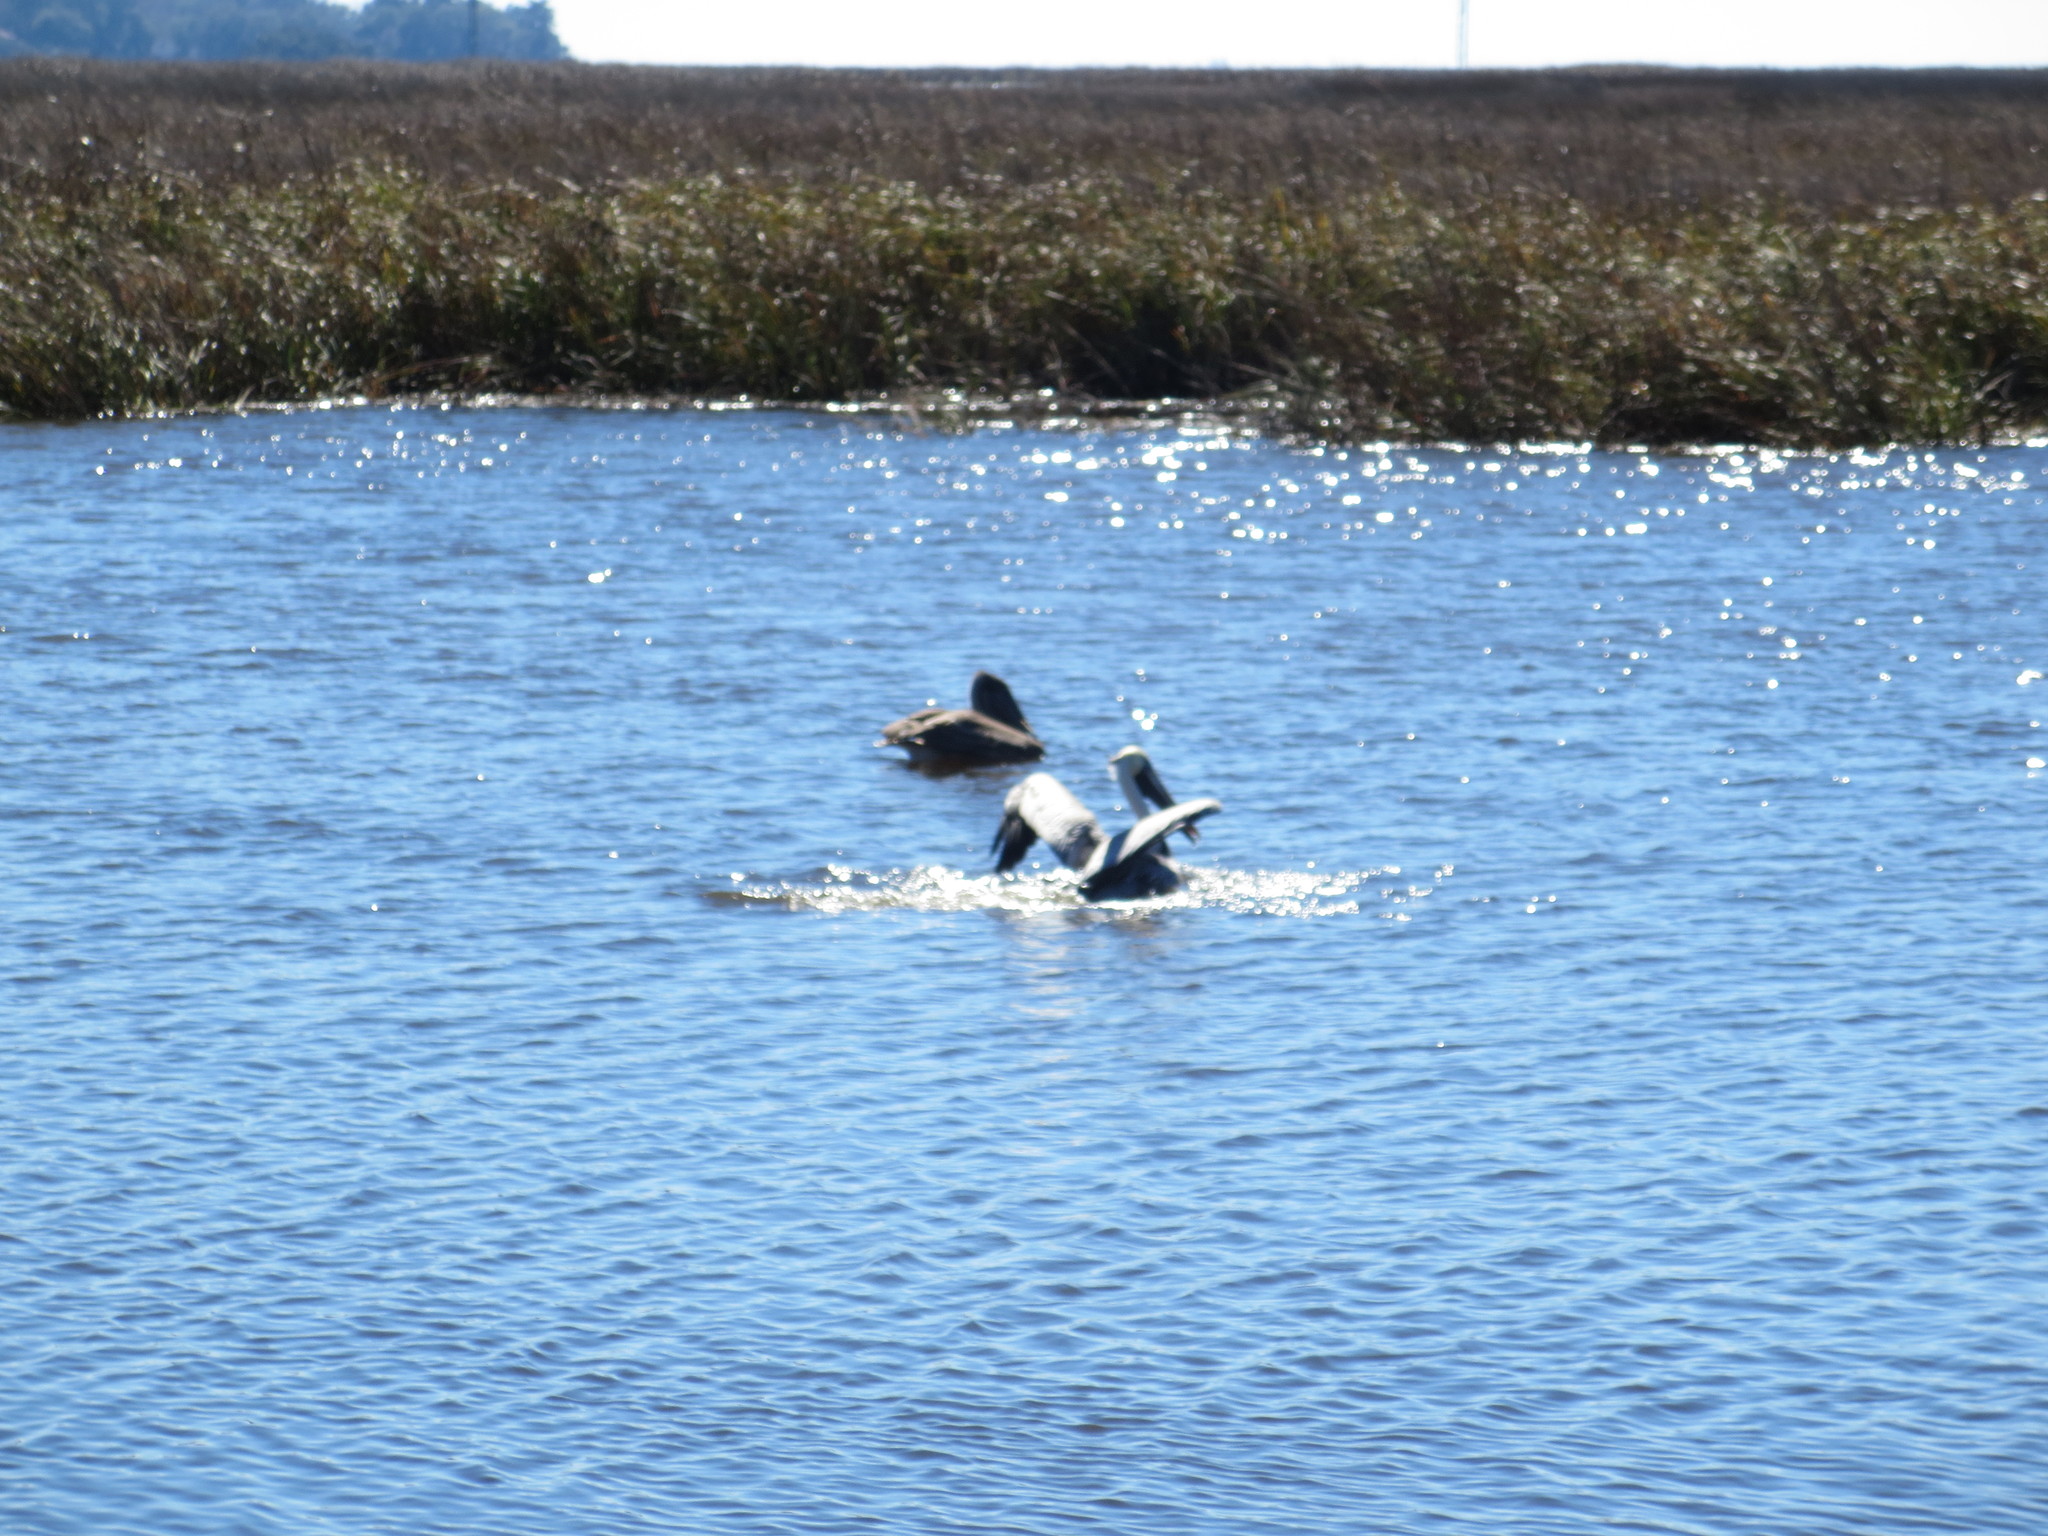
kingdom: Animalia
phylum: Chordata
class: Aves
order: Pelecaniformes
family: Pelecanidae
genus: Pelecanus
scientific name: Pelecanus occidentalis
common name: Brown pelican
